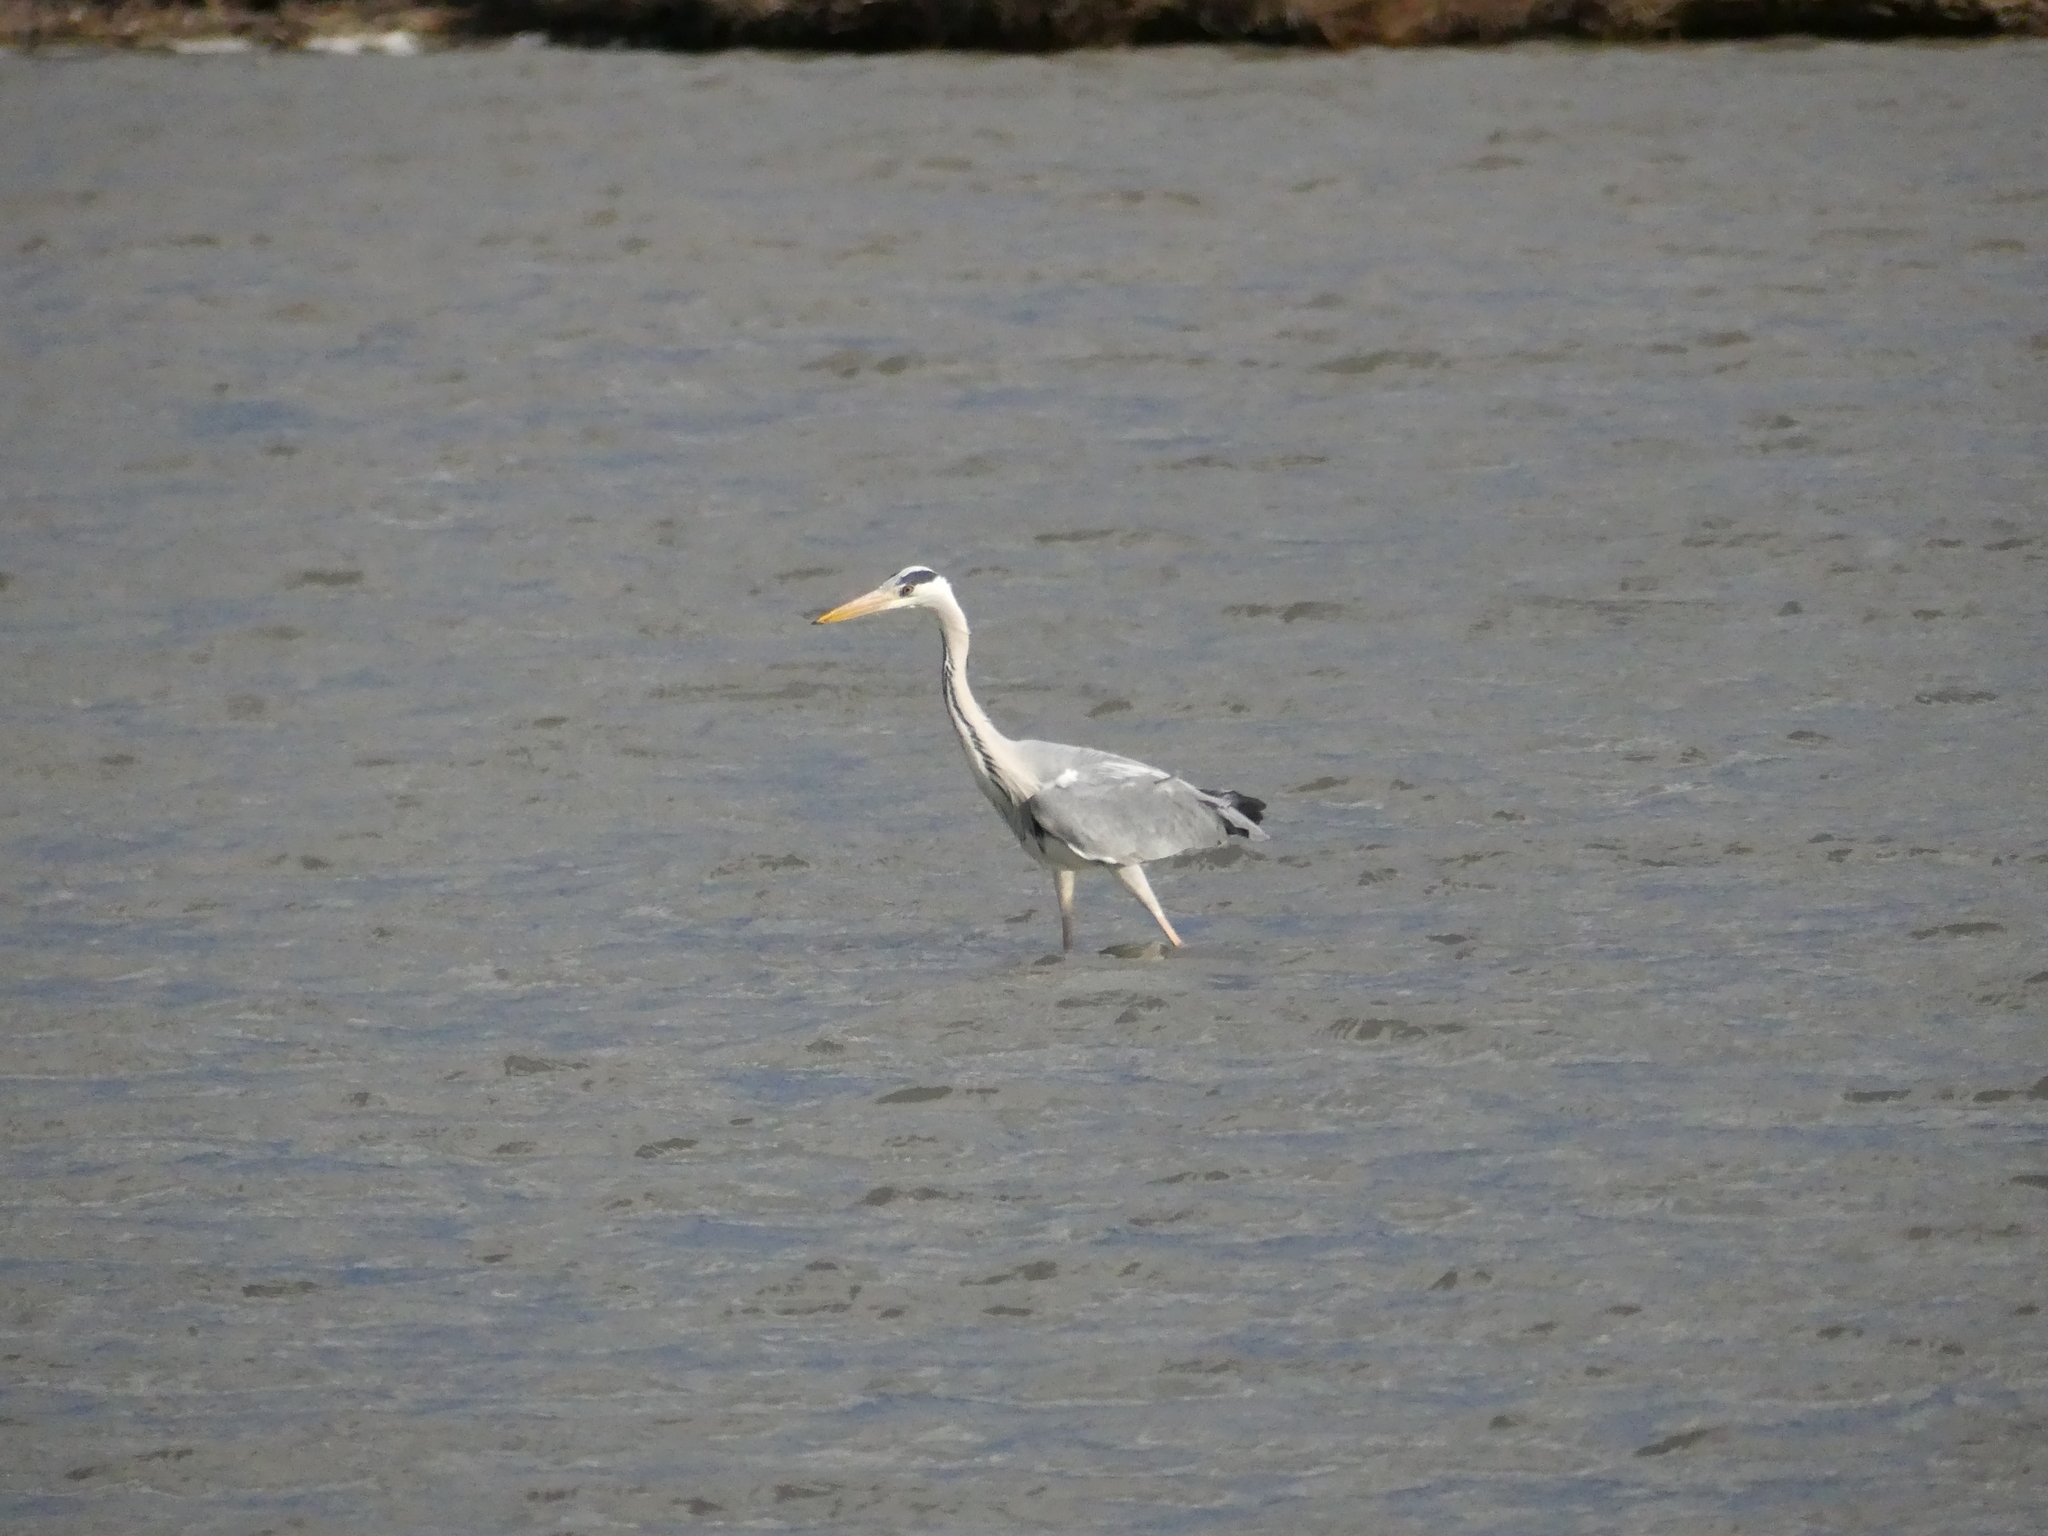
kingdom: Animalia
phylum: Chordata
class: Aves
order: Pelecaniformes
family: Ardeidae
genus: Ardea
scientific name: Ardea cinerea
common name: Grey heron
